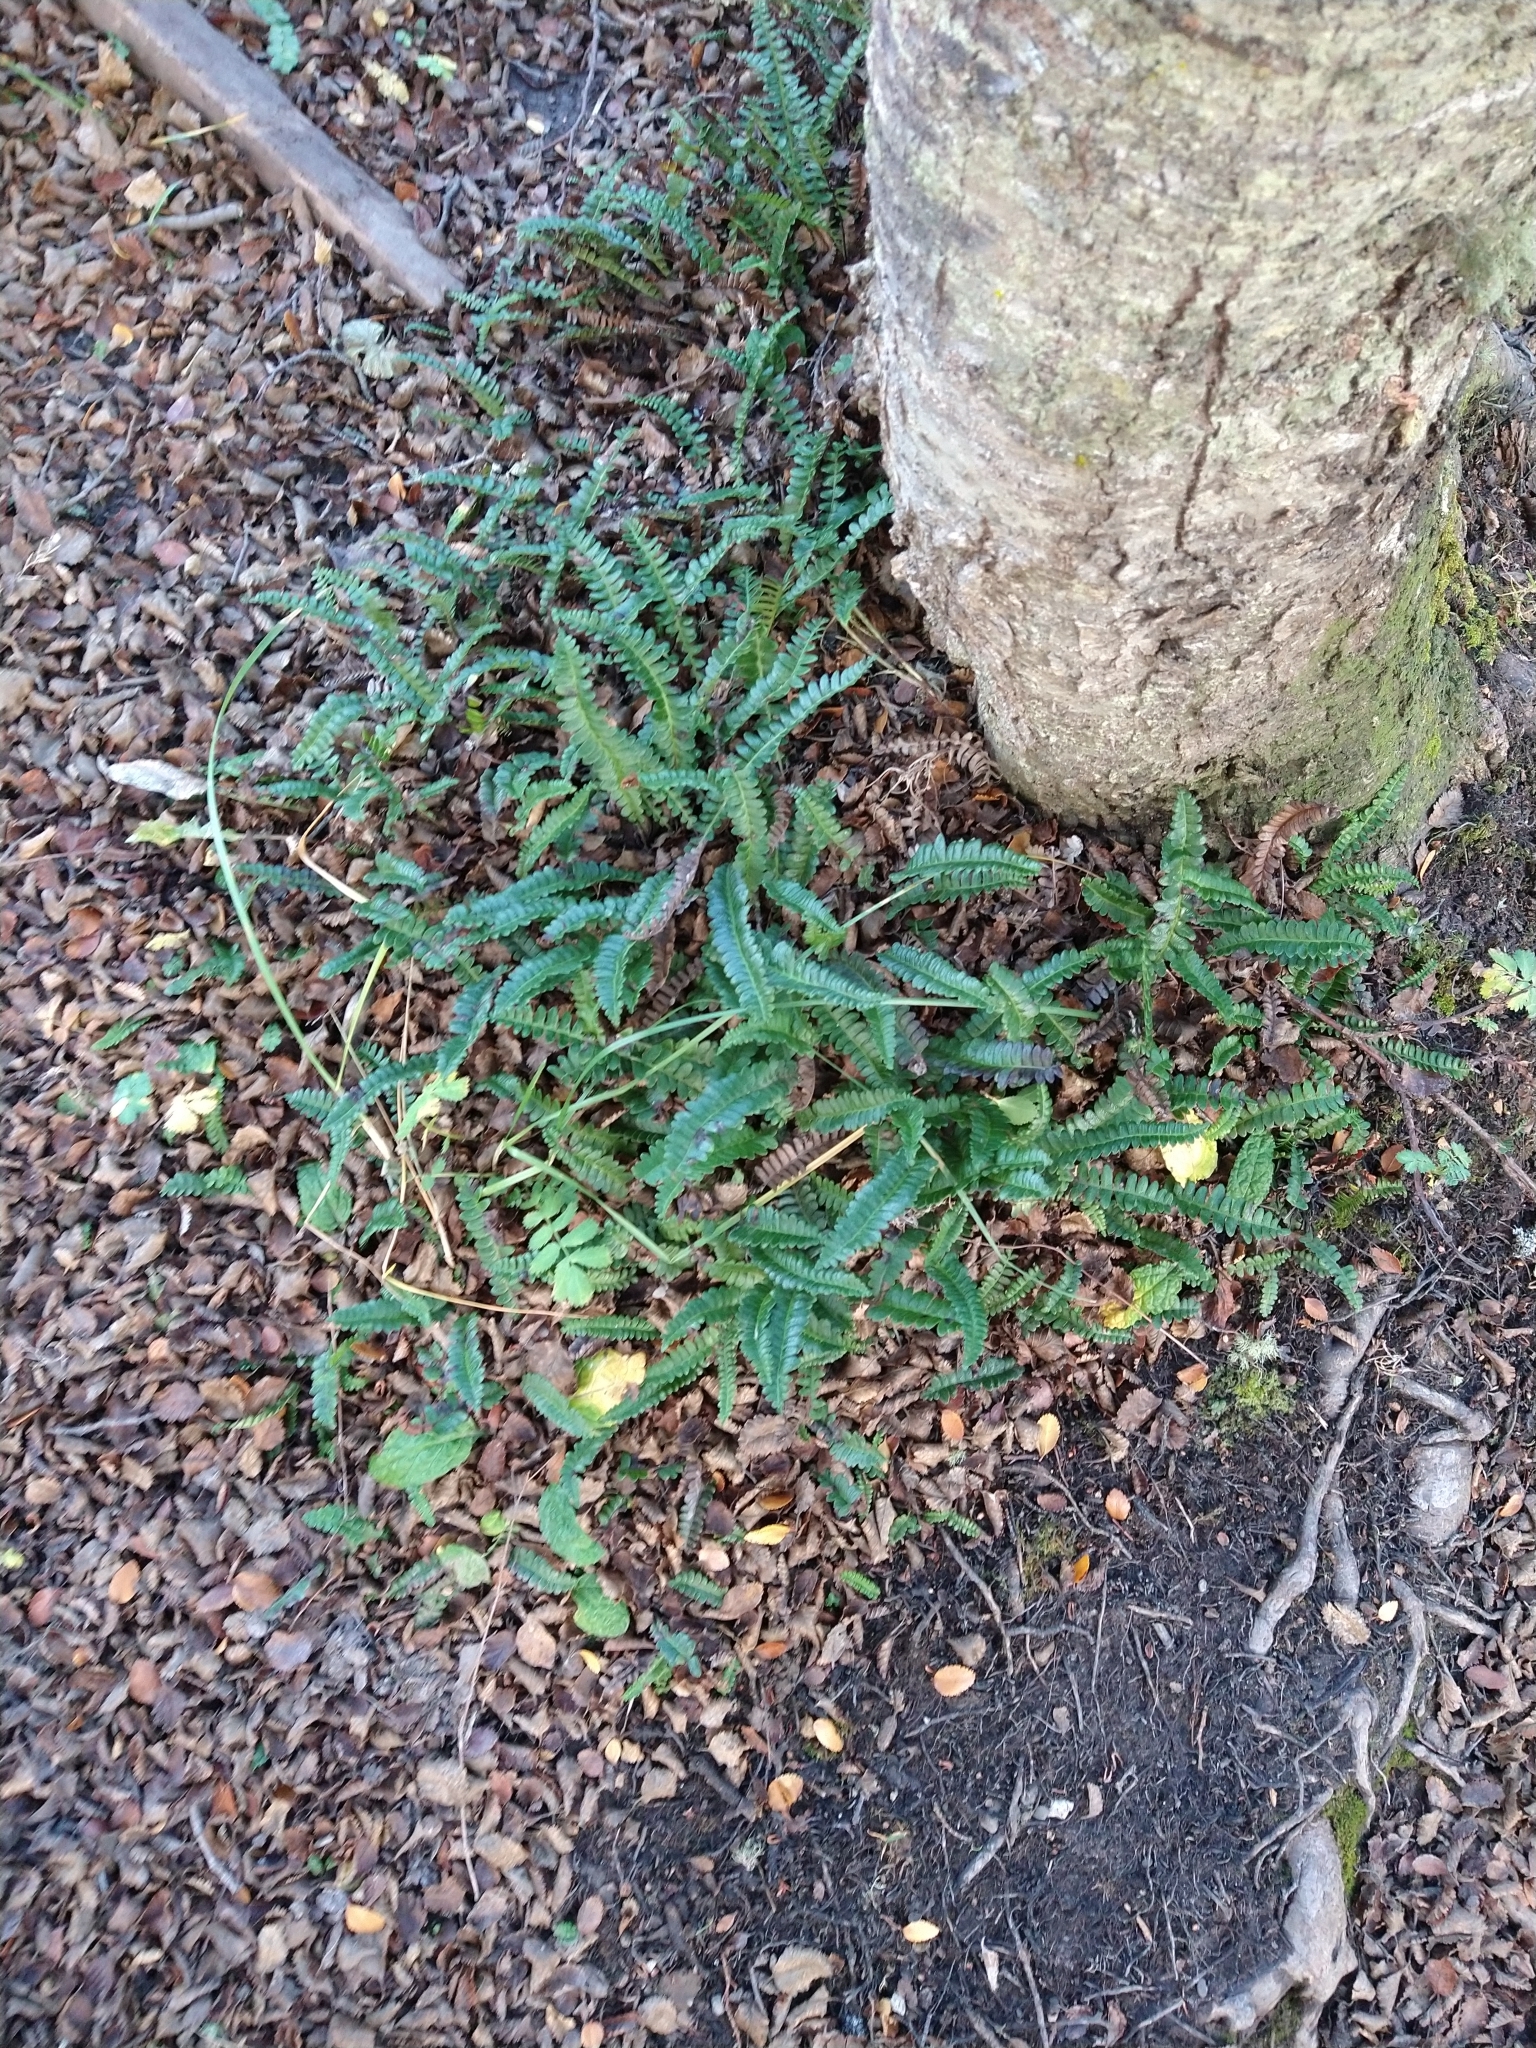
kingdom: Plantae
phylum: Tracheophyta
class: Polypodiopsida
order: Polypodiales
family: Blechnaceae
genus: Austroblechnum
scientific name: Austroblechnum penna-marina
